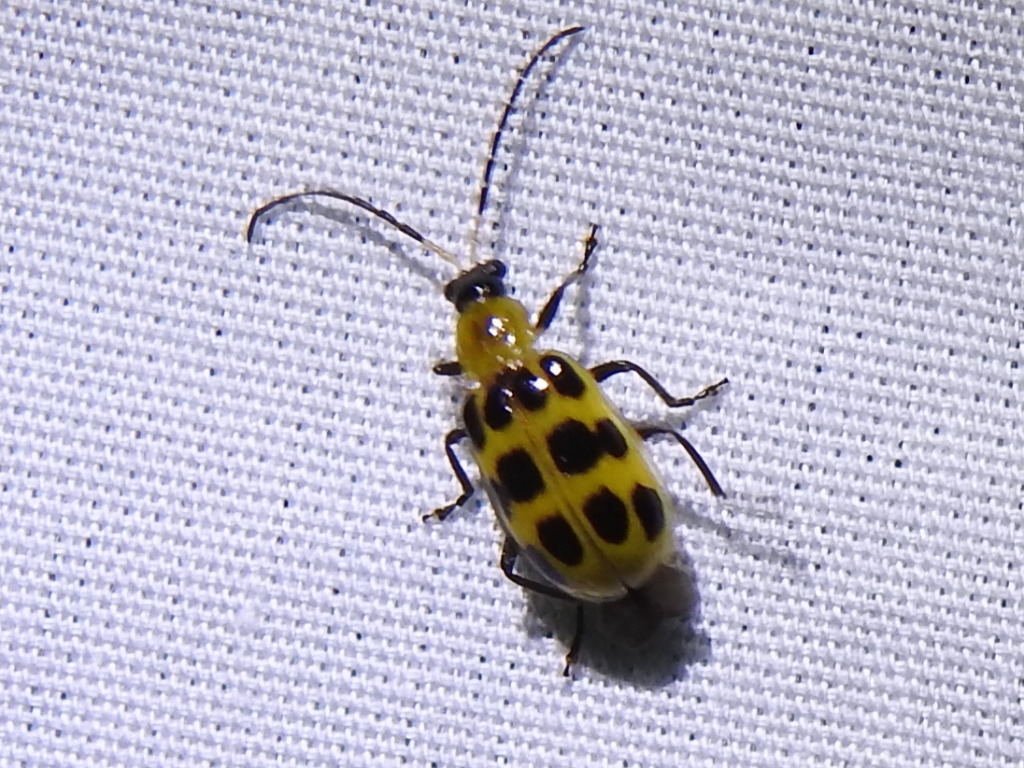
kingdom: Animalia
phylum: Arthropoda
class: Insecta
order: Coleoptera
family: Chrysomelidae
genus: Diabrotica
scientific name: Diabrotica undecimpunctata
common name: Spotted cucumber beetle
